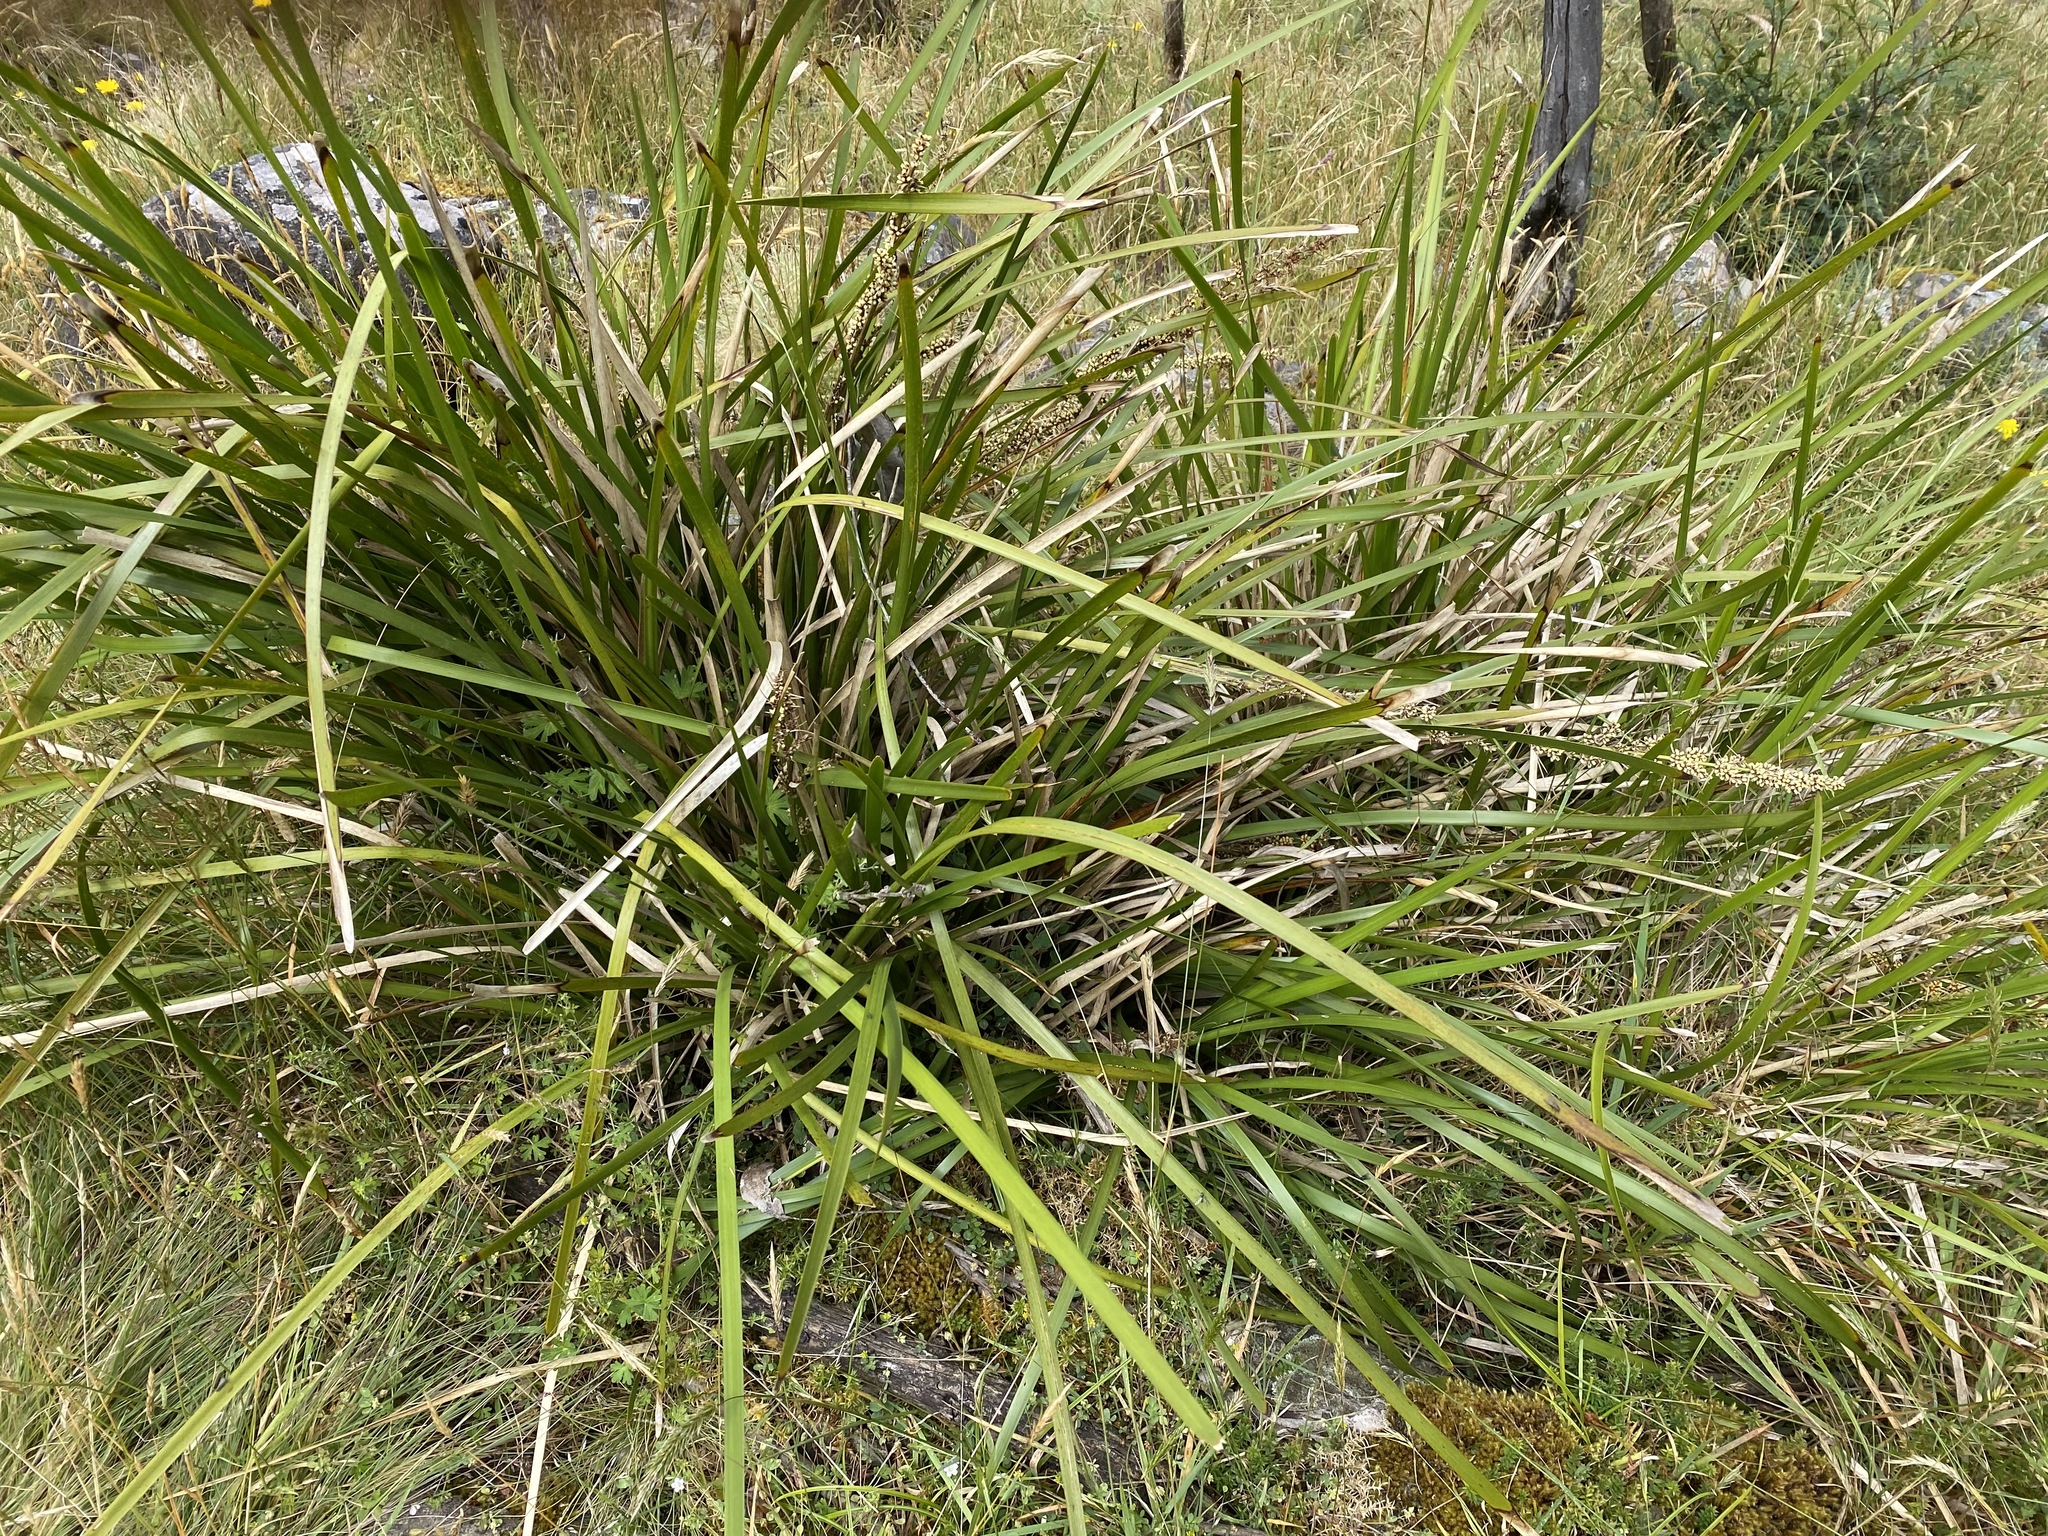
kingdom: Plantae
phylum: Tracheophyta
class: Liliopsida
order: Asparagales
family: Asparagaceae
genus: Lomandra
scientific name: Lomandra longifolia
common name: Longleaf mat-rush
